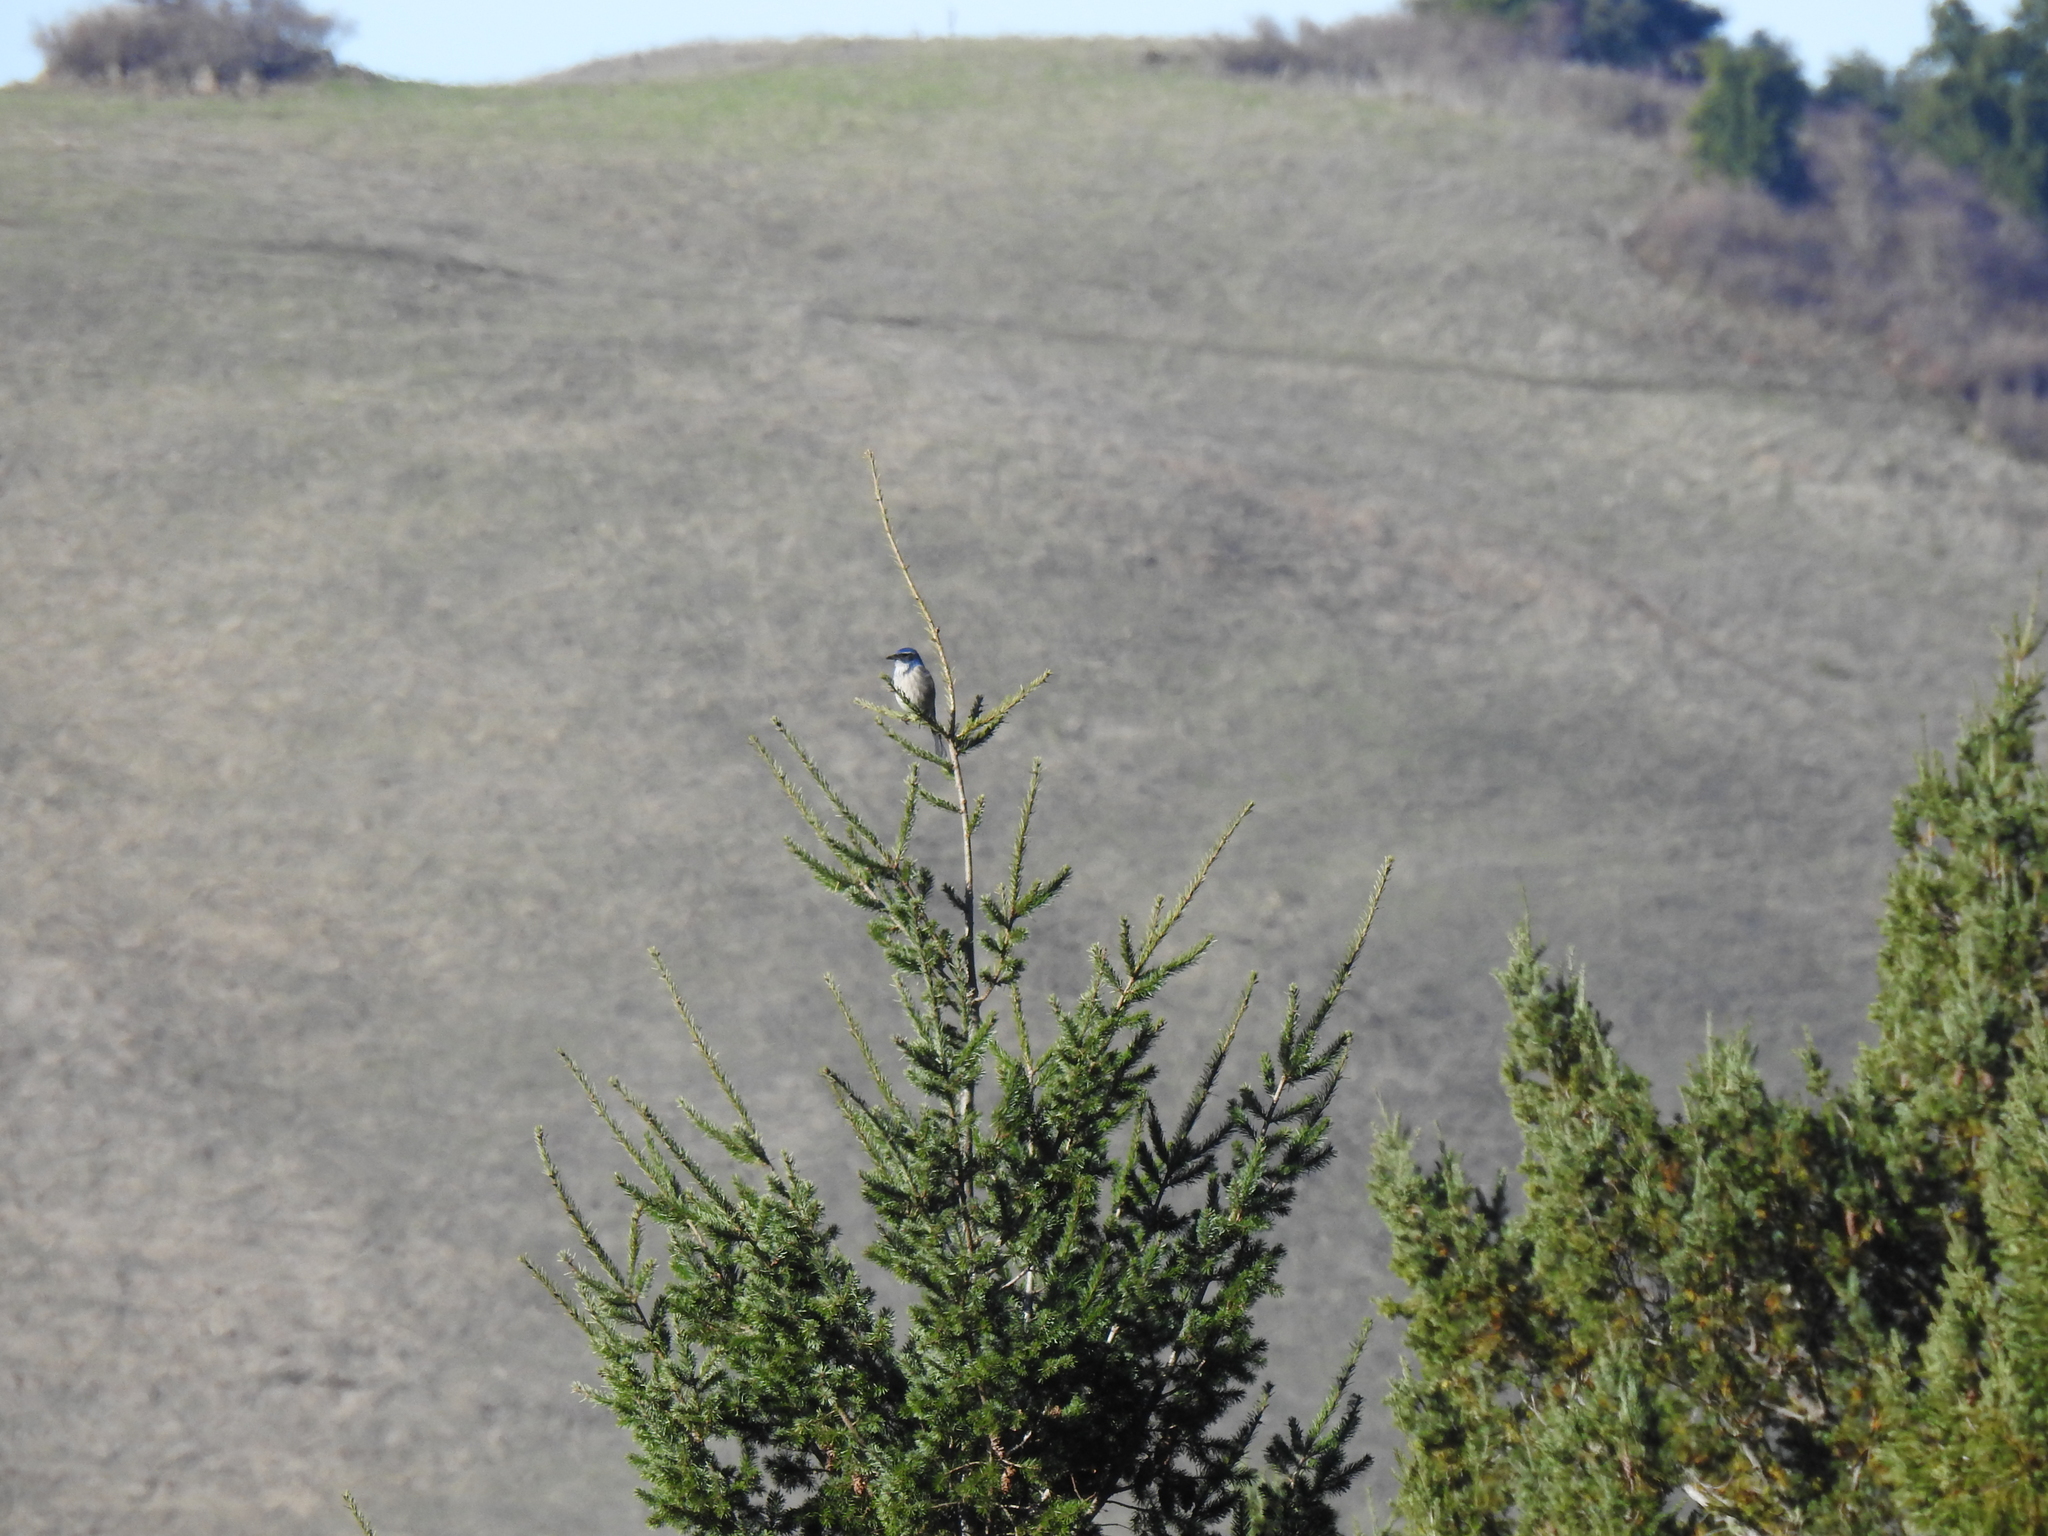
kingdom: Animalia
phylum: Chordata
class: Aves
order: Passeriformes
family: Corvidae
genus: Aphelocoma
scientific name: Aphelocoma californica
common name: California scrub-jay
